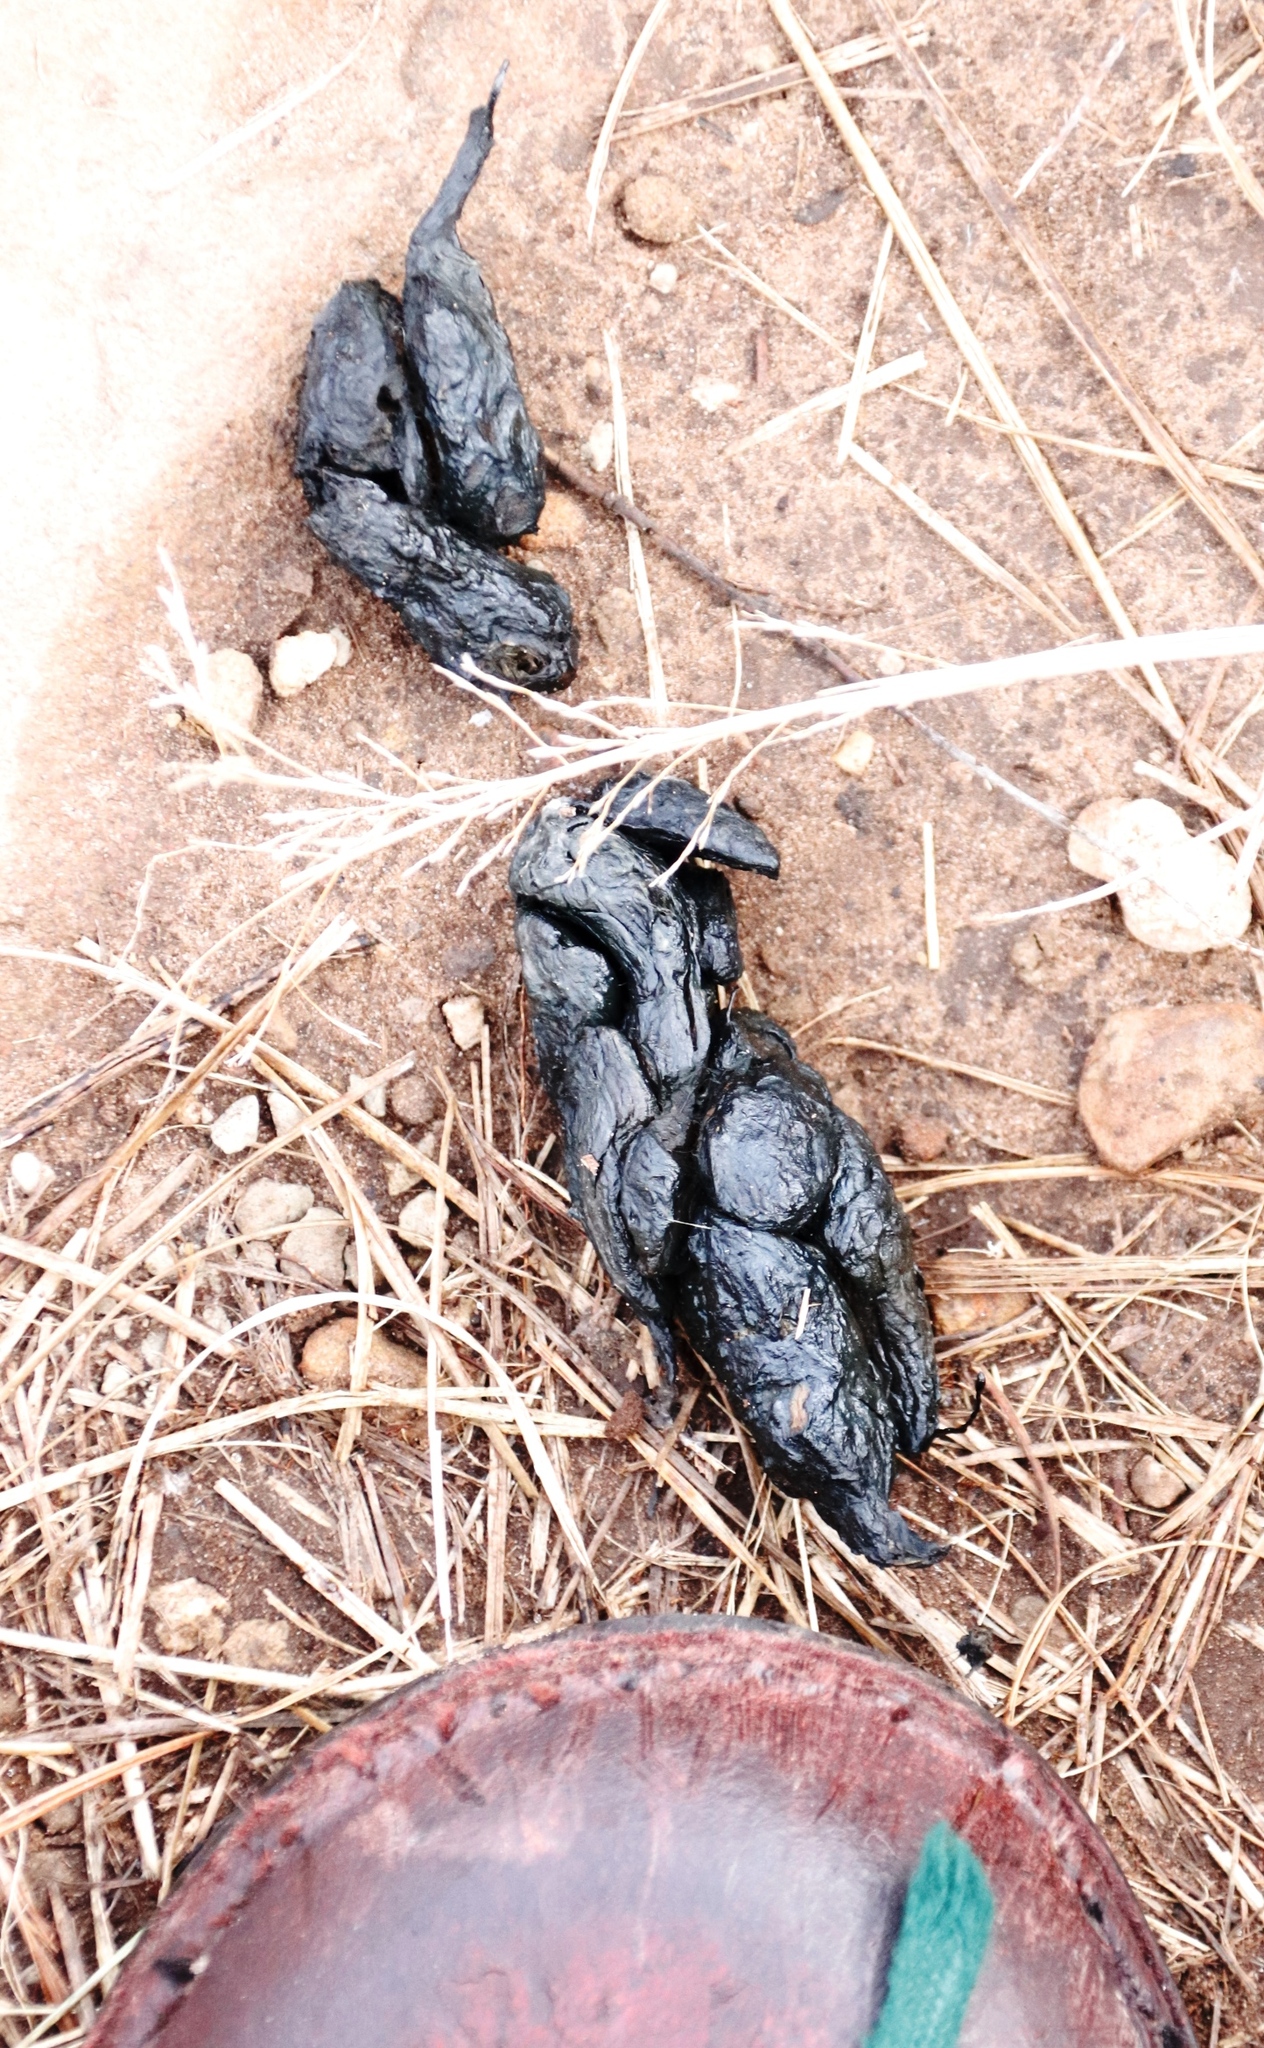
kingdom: Animalia
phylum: Chordata
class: Mammalia
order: Rodentia
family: Hystricidae
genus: Hystrix
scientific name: Hystrix africaeaustralis
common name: Cape porcupine
